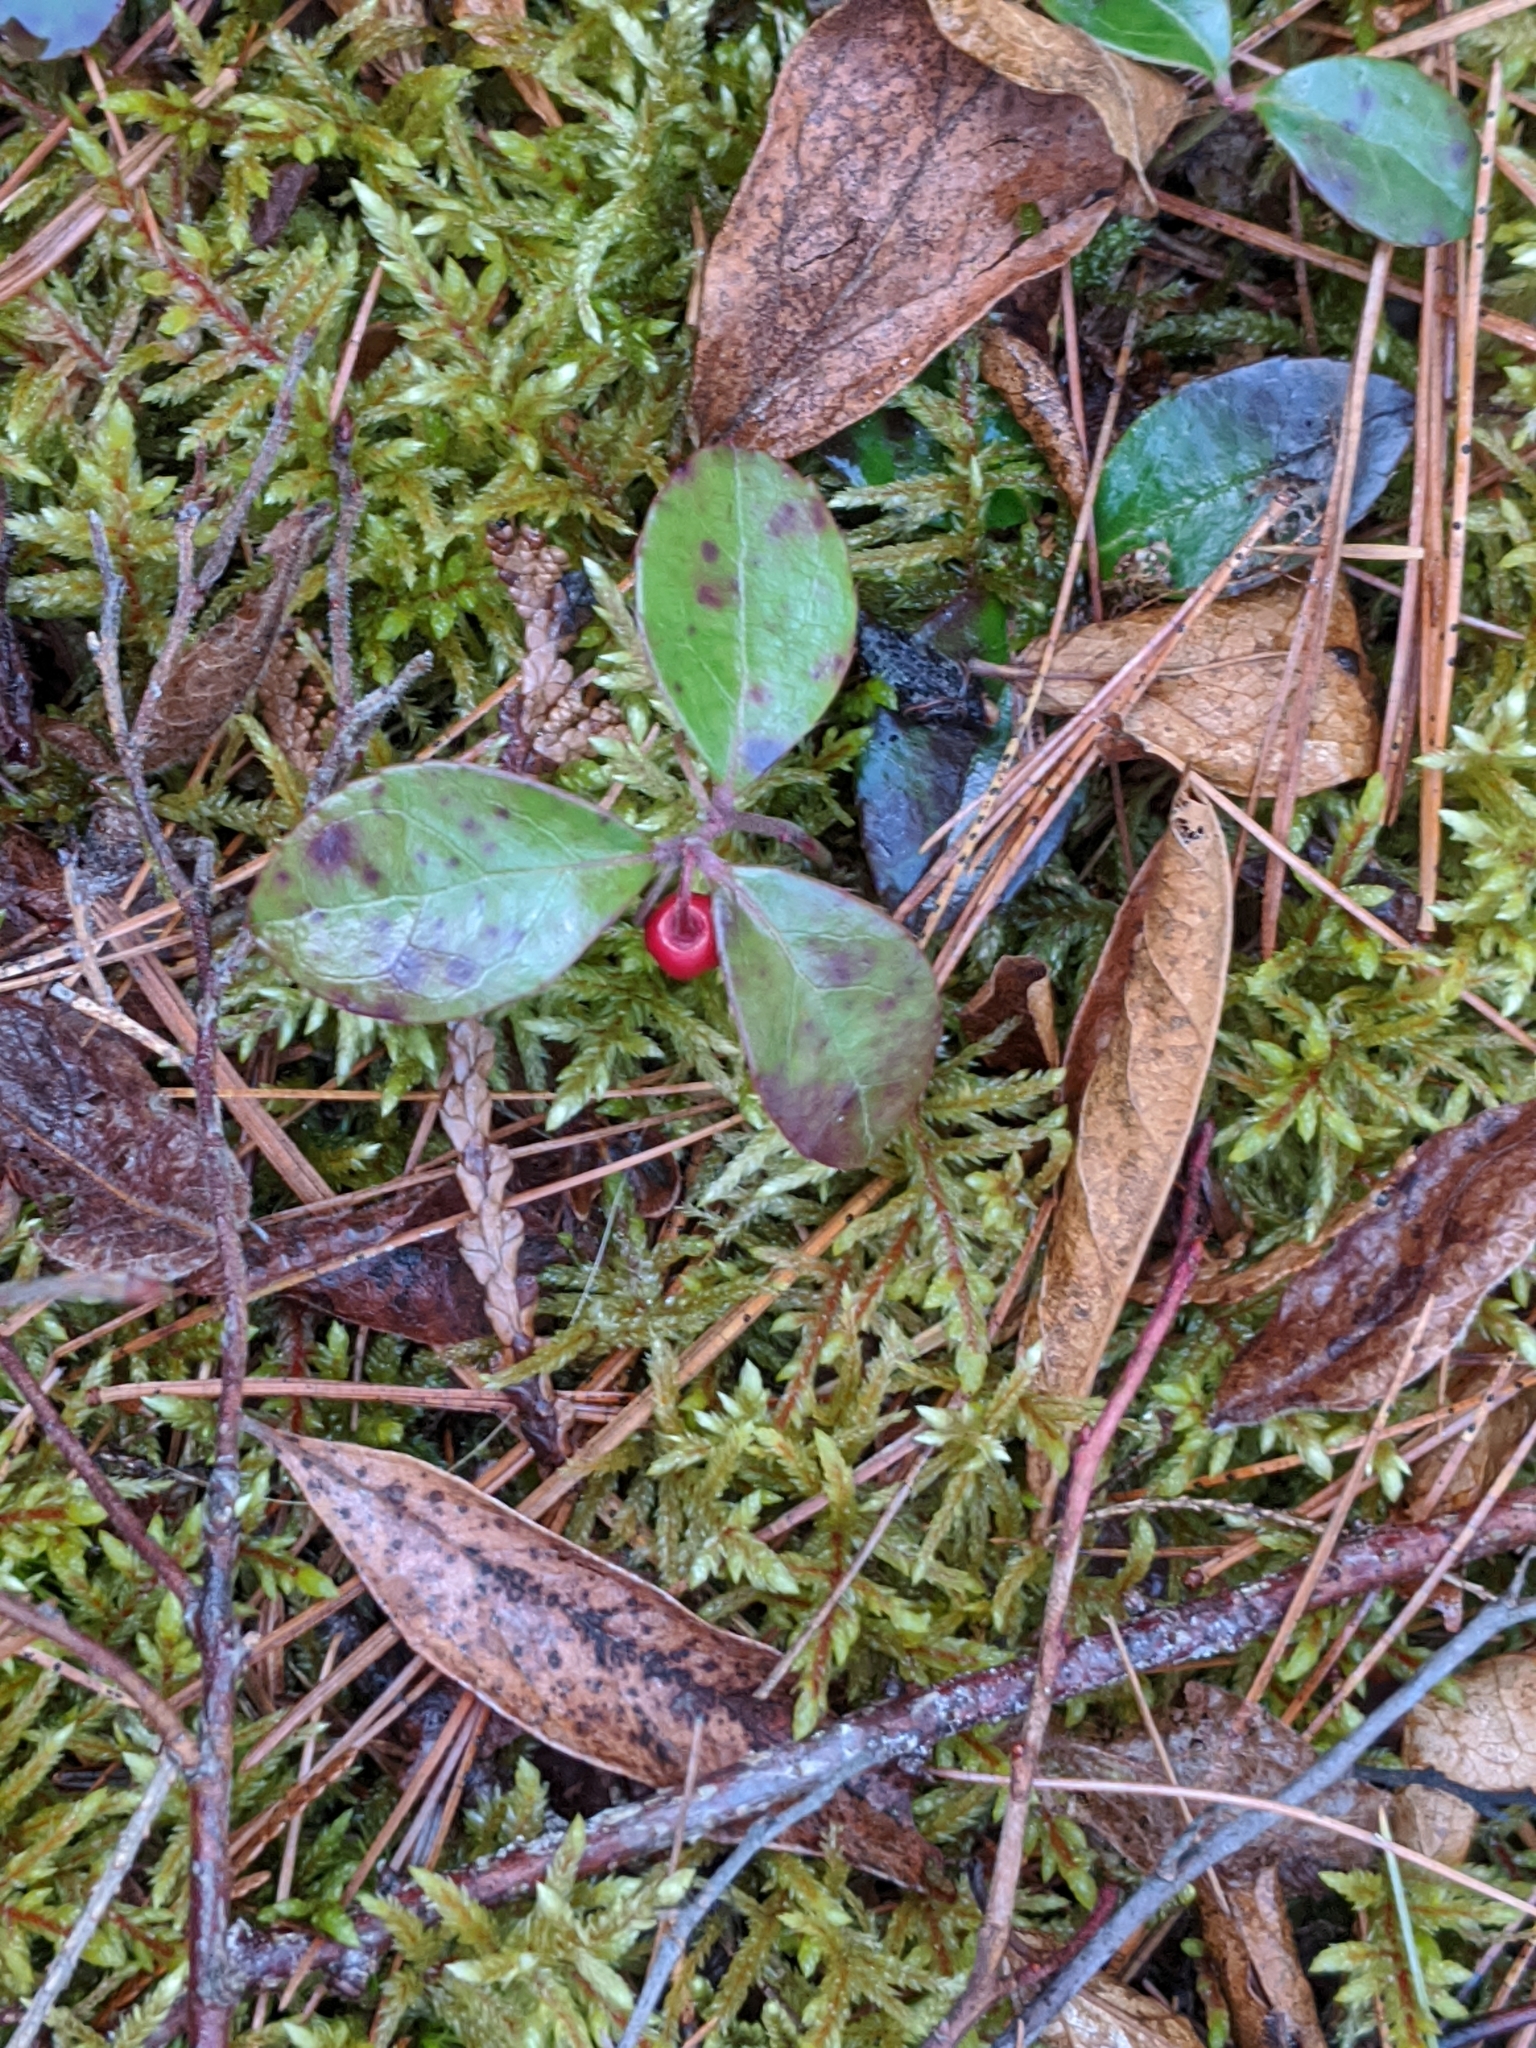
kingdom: Plantae
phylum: Tracheophyta
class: Magnoliopsida
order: Ericales
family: Ericaceae
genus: Gaultheria
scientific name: Gaultheria procumbens
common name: Checkerberry
